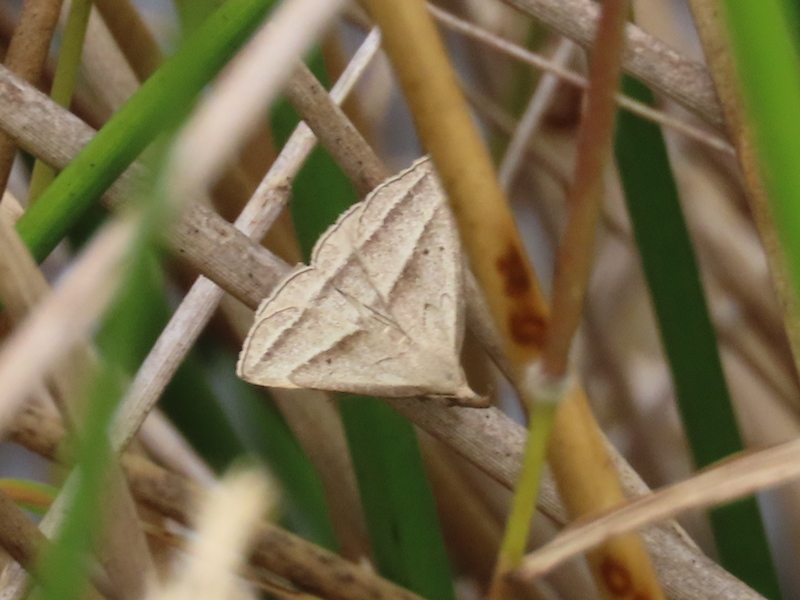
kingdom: Animalia
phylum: Arthropoda
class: Insecta
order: Lepidoptera
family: Erebidae
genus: Macrochilo
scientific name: Macrochilo absorptalis
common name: Slant-lined owlet
